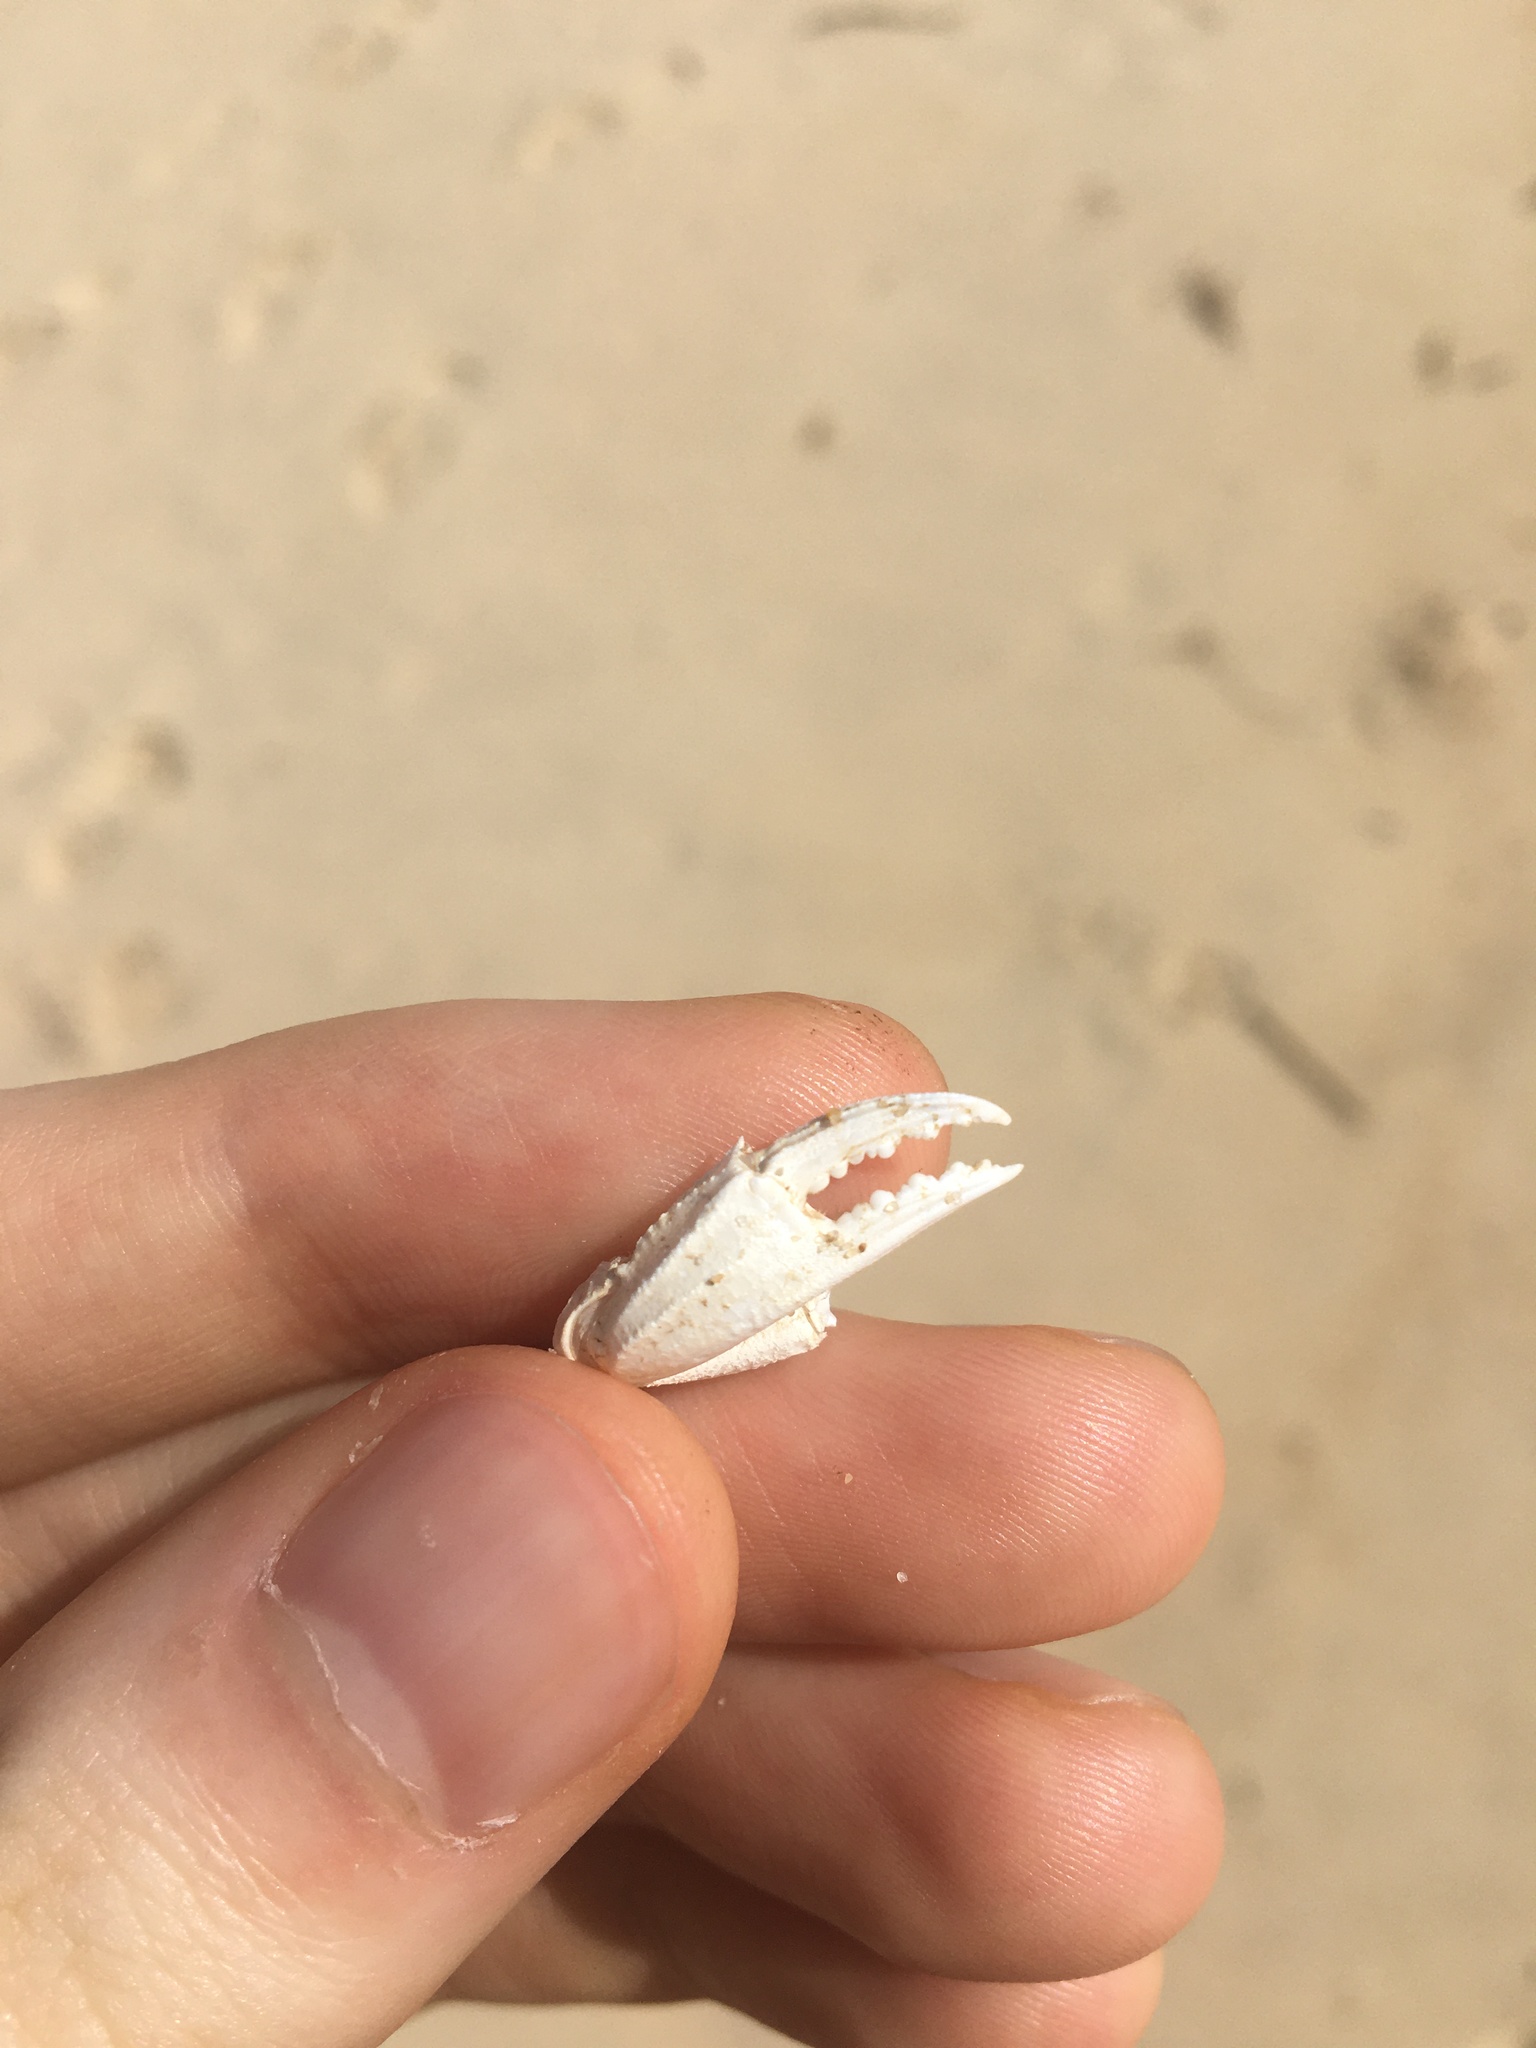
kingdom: Animalia
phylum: Arthropoda
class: Malacostraca
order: Decapoda
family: Ovalipidae
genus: Ovalipes
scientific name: Ovalipes australiensis
